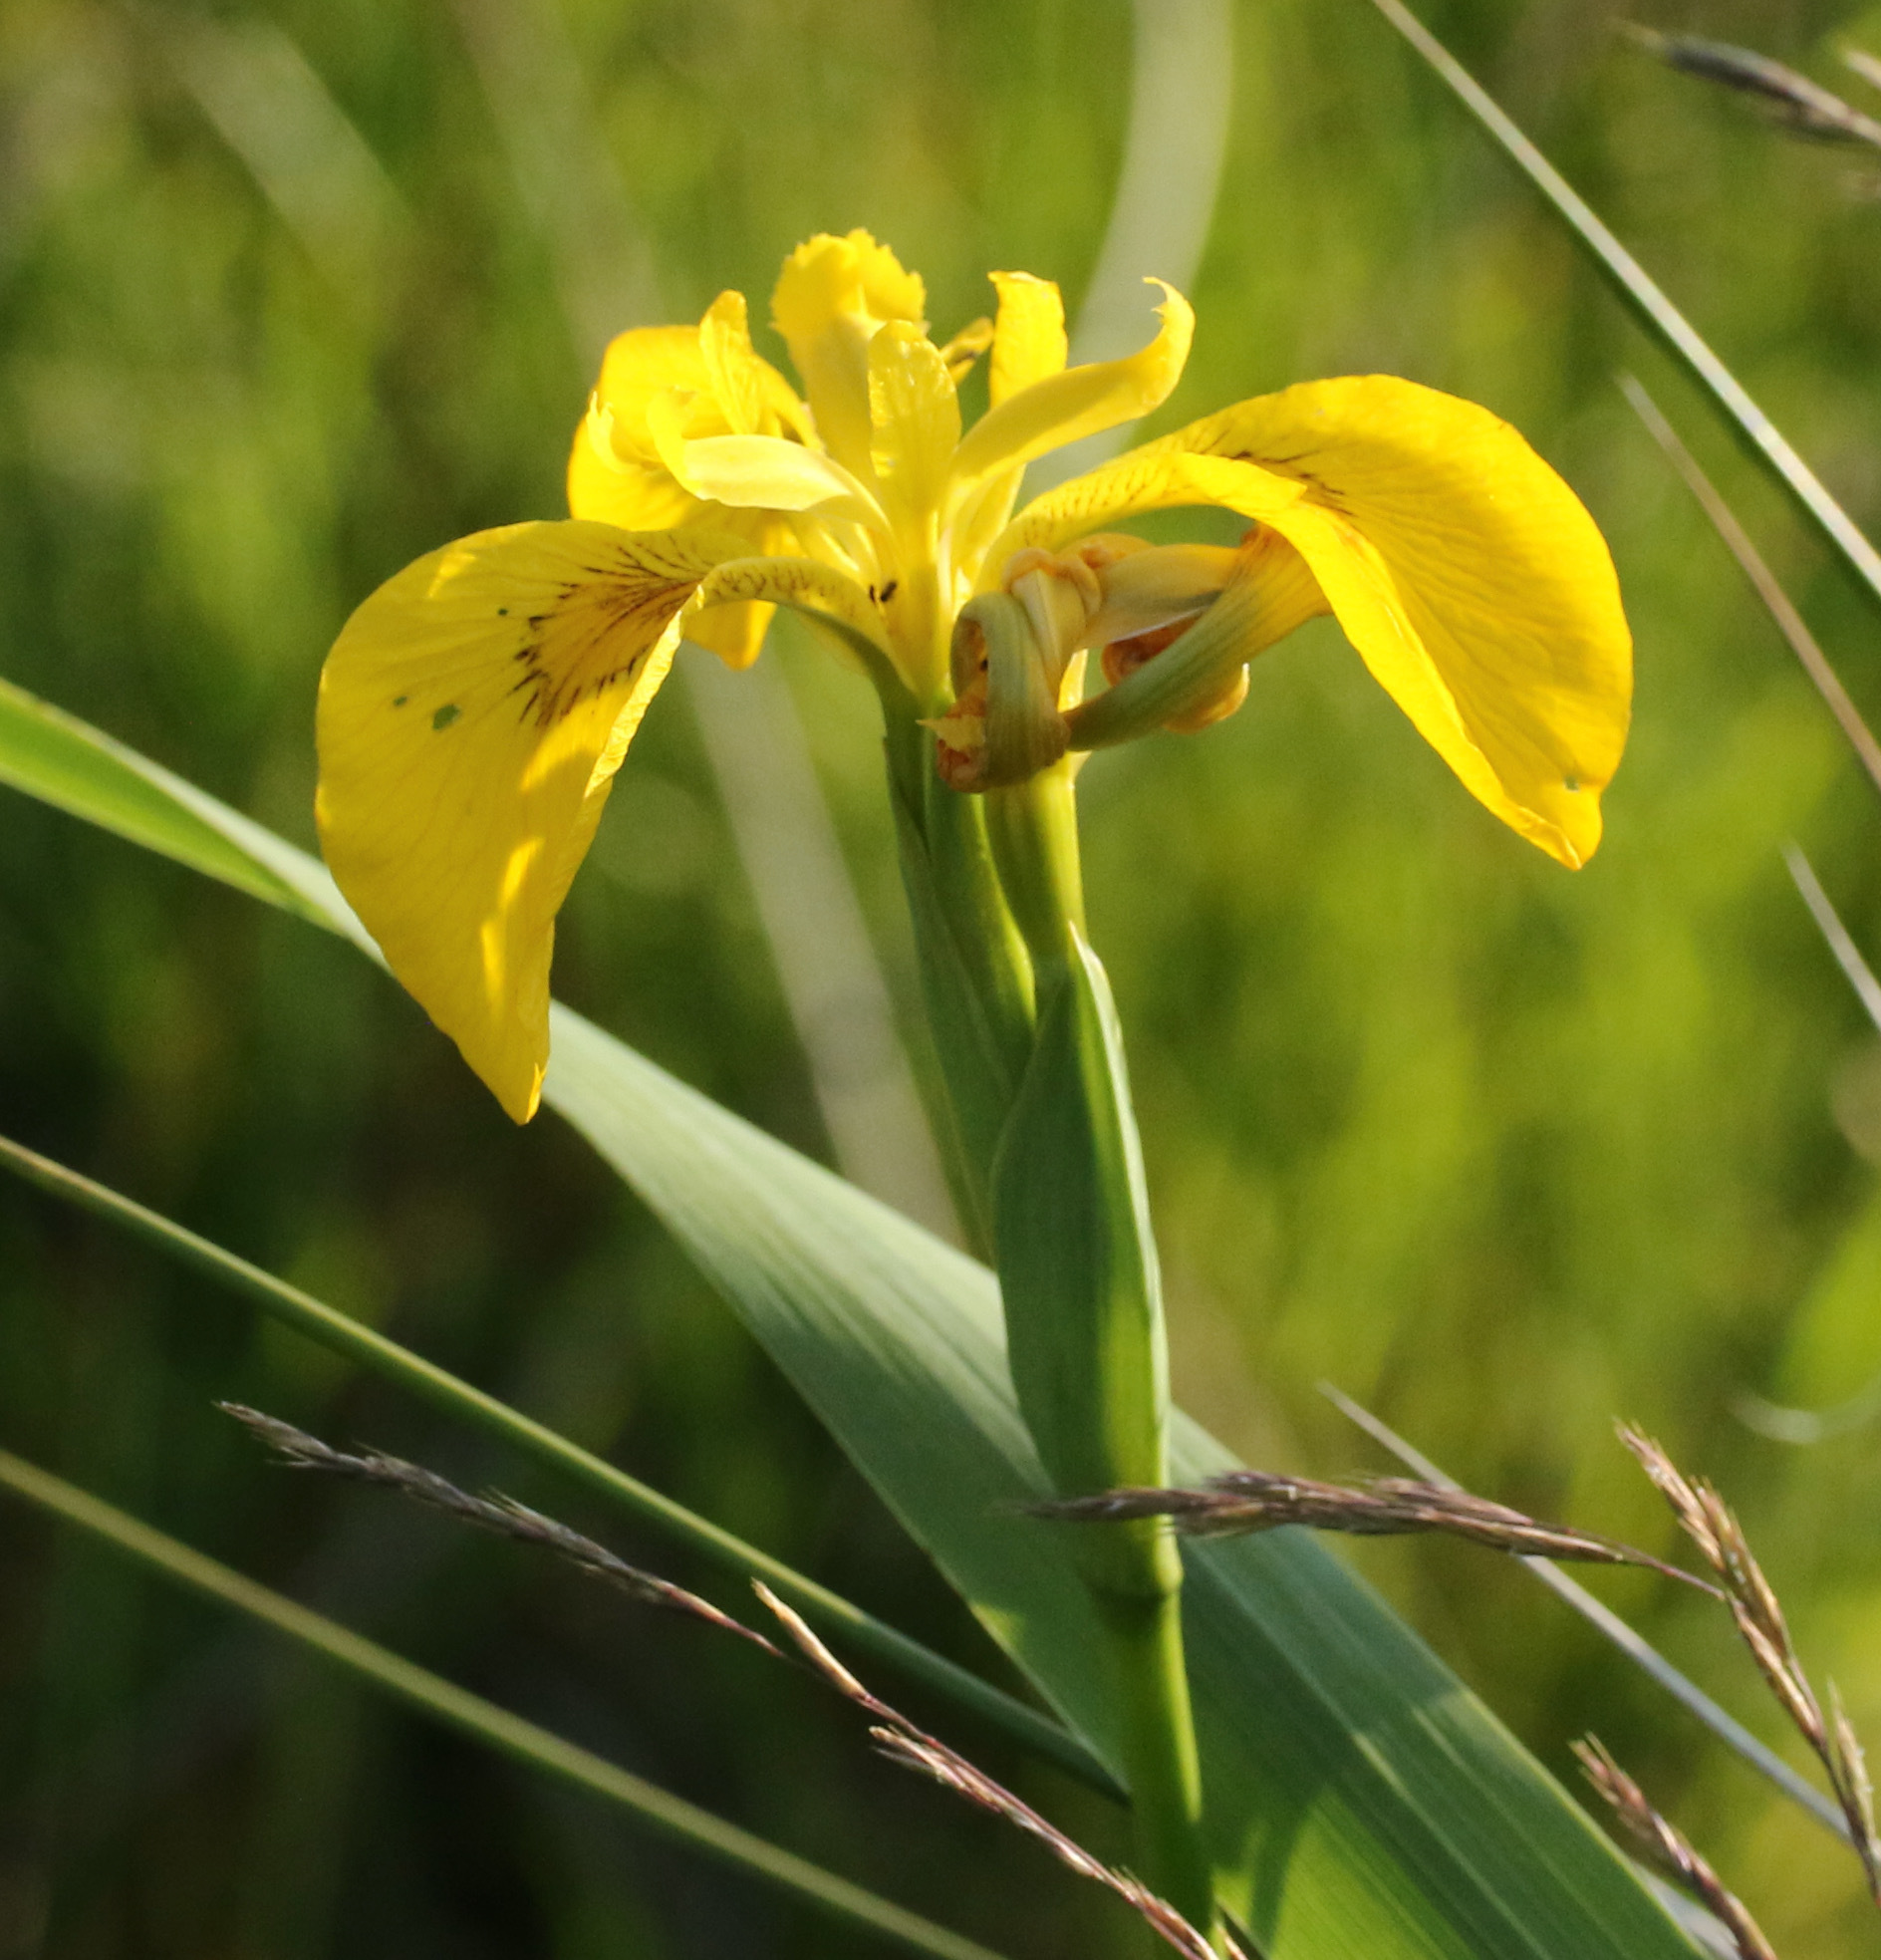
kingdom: Plantae
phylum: Tracheophyta
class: Liliopsida
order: Asparagales
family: Iridaceae
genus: Iris
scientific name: Iris pseudacorus
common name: Yellow flag
